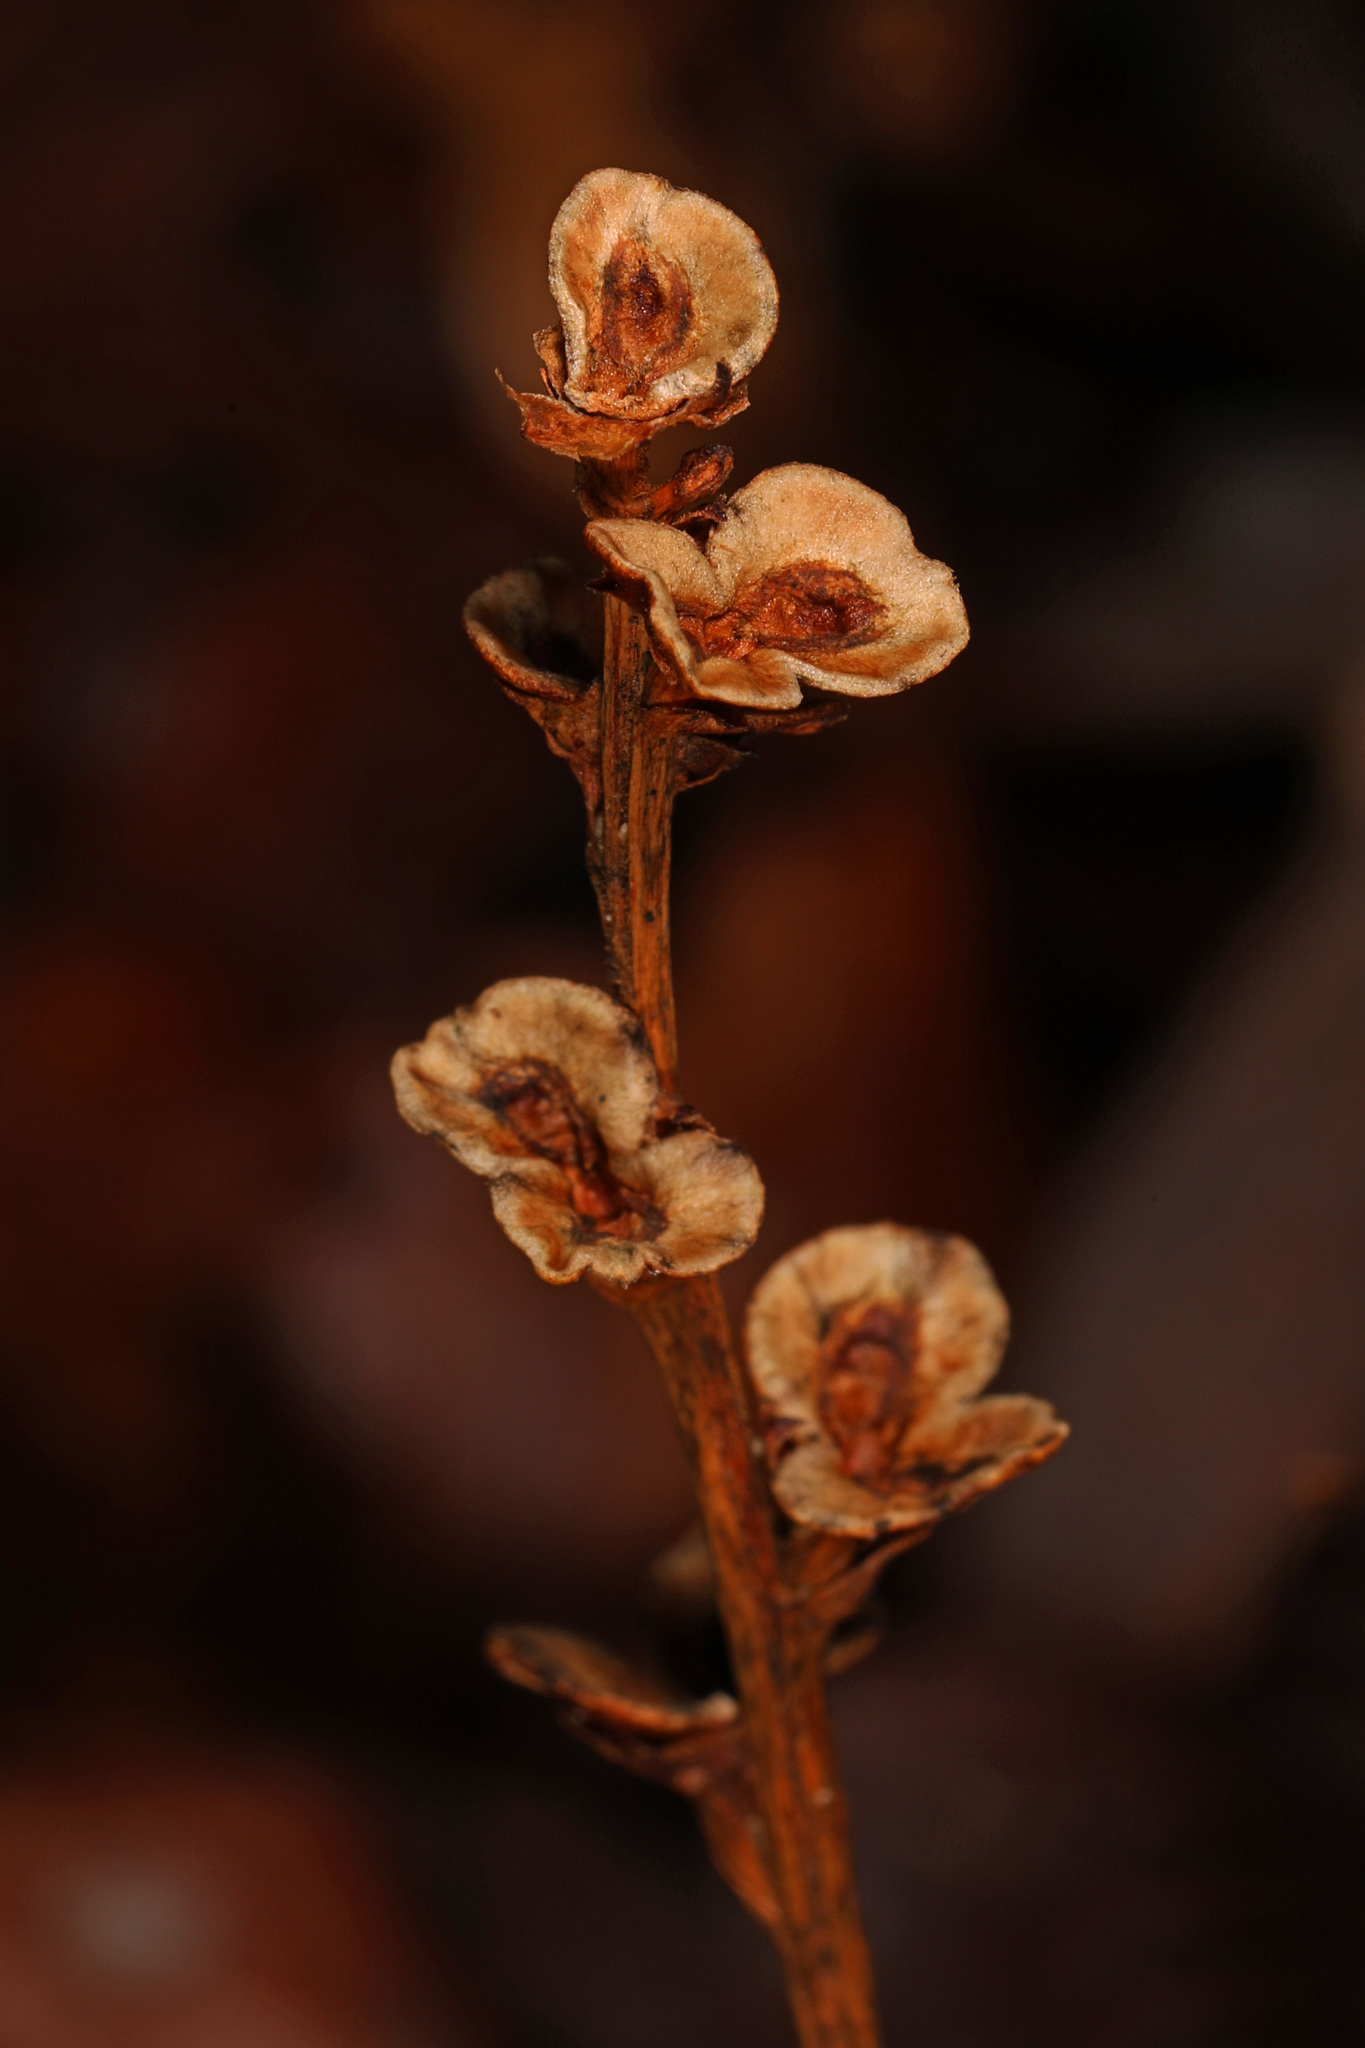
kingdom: Plantae
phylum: Tracheophyta
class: Magnoliopsida
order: Lamiales
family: Orobanchaceae
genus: Epifagus
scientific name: Epifagus virginiana
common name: Beechdrops
